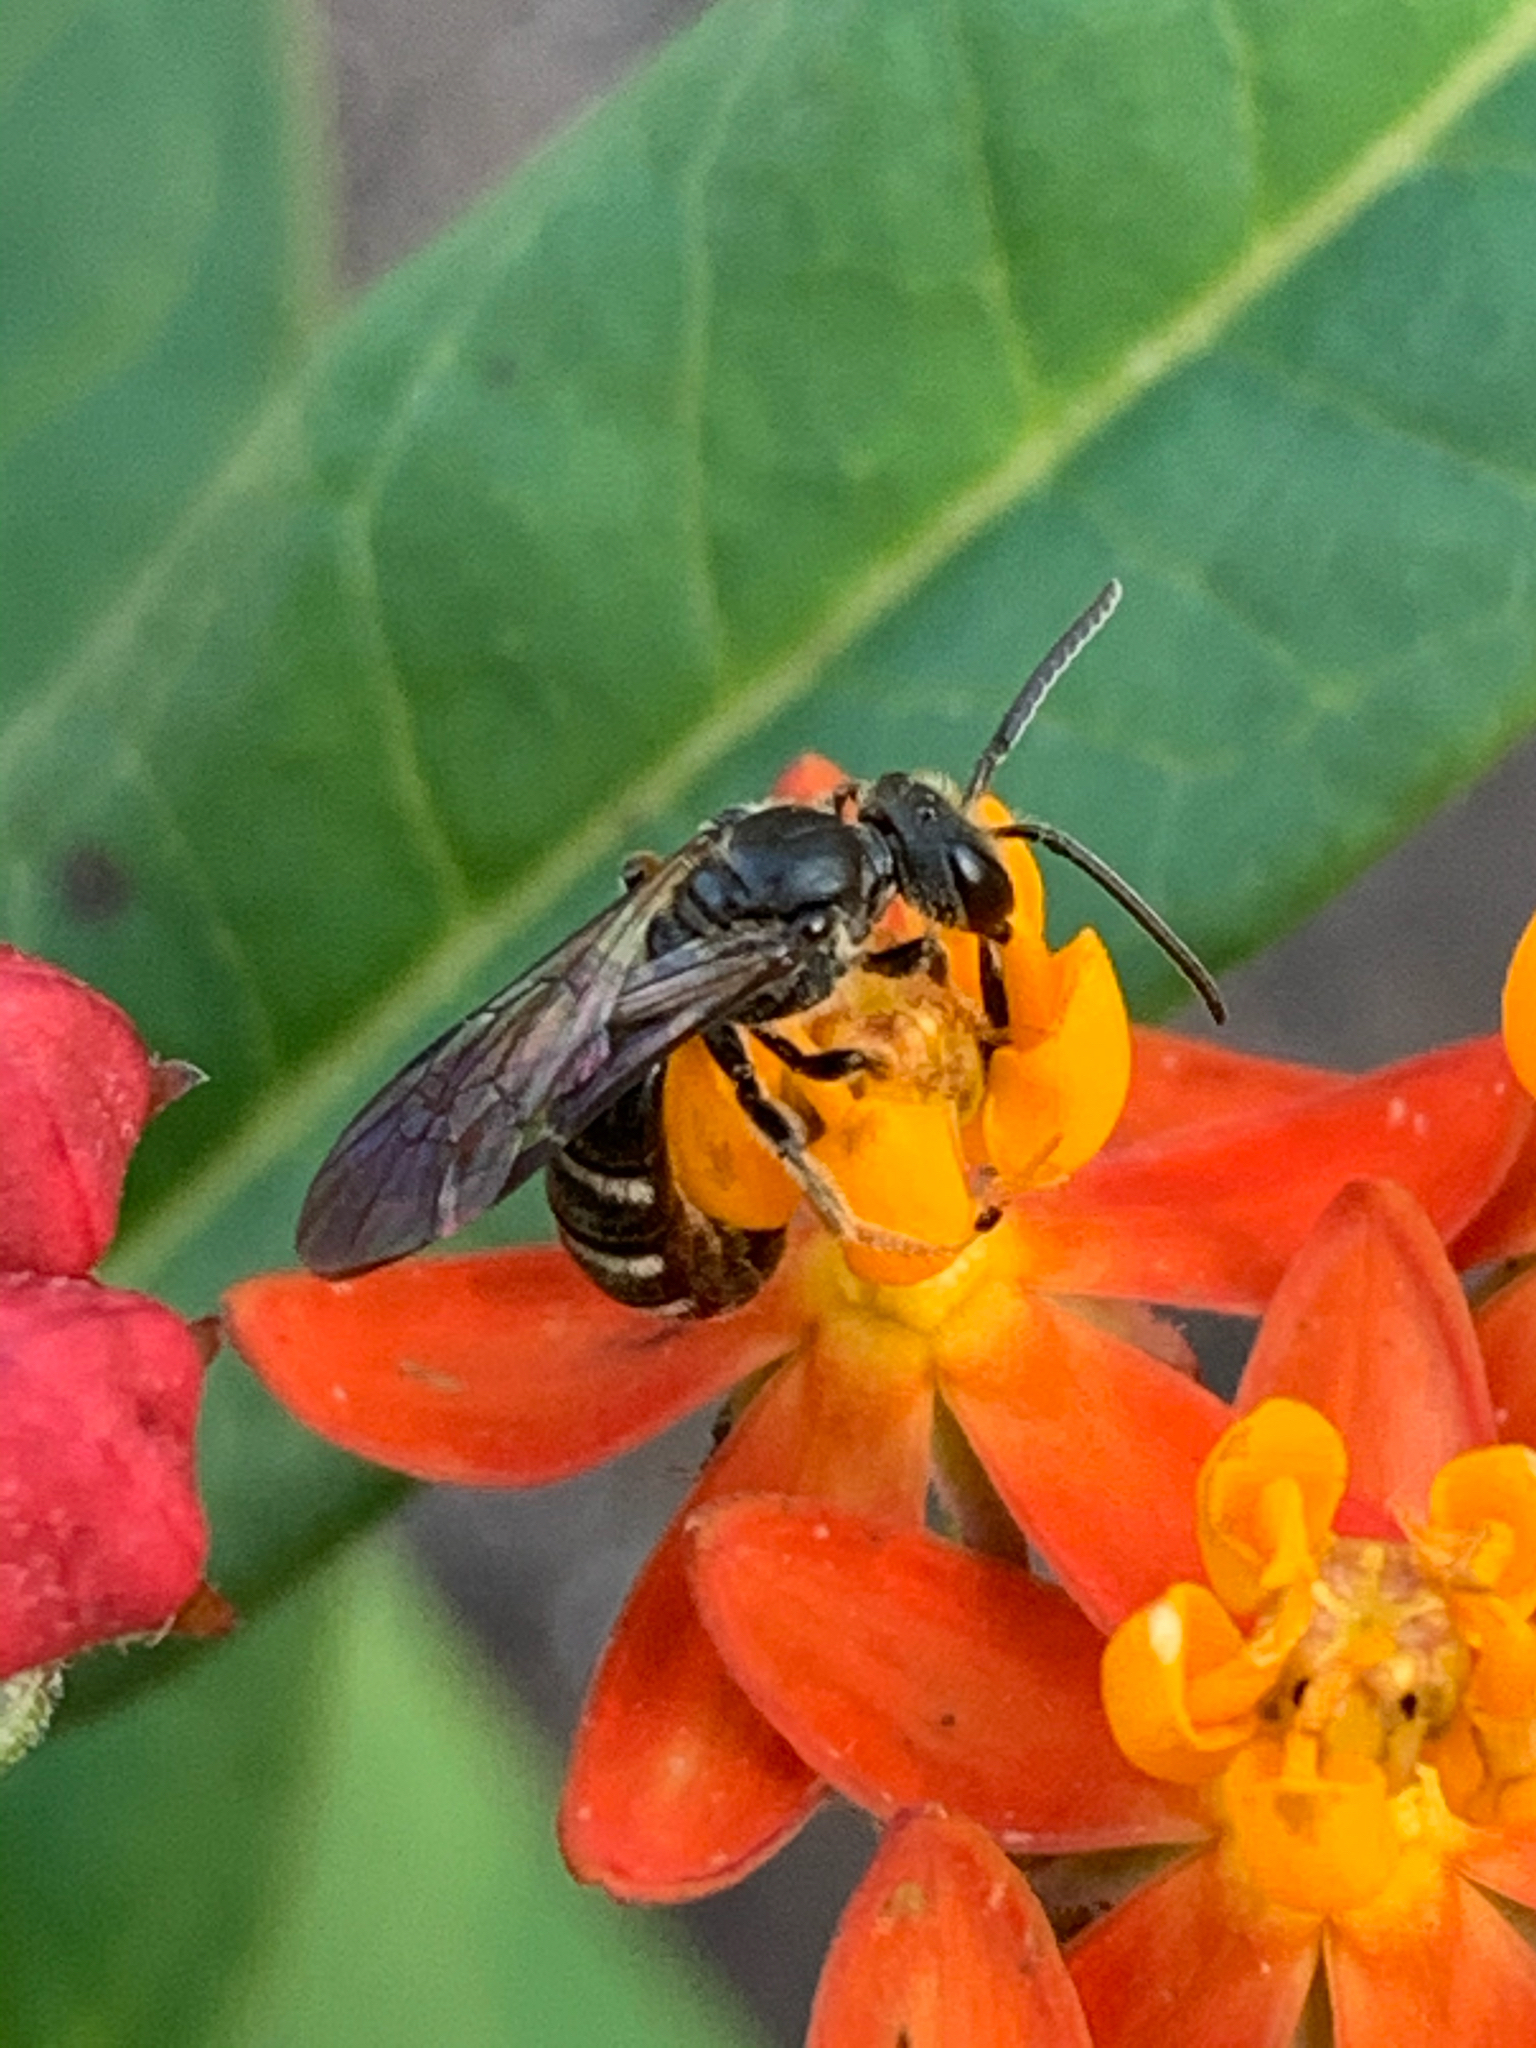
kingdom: Animalia
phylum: Arthropoda
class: Insecta
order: Hymenoptera
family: Halictidae
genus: Lasioglossum
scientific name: Lasioglossum fuscipenne
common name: Brown-winged sweat bee
